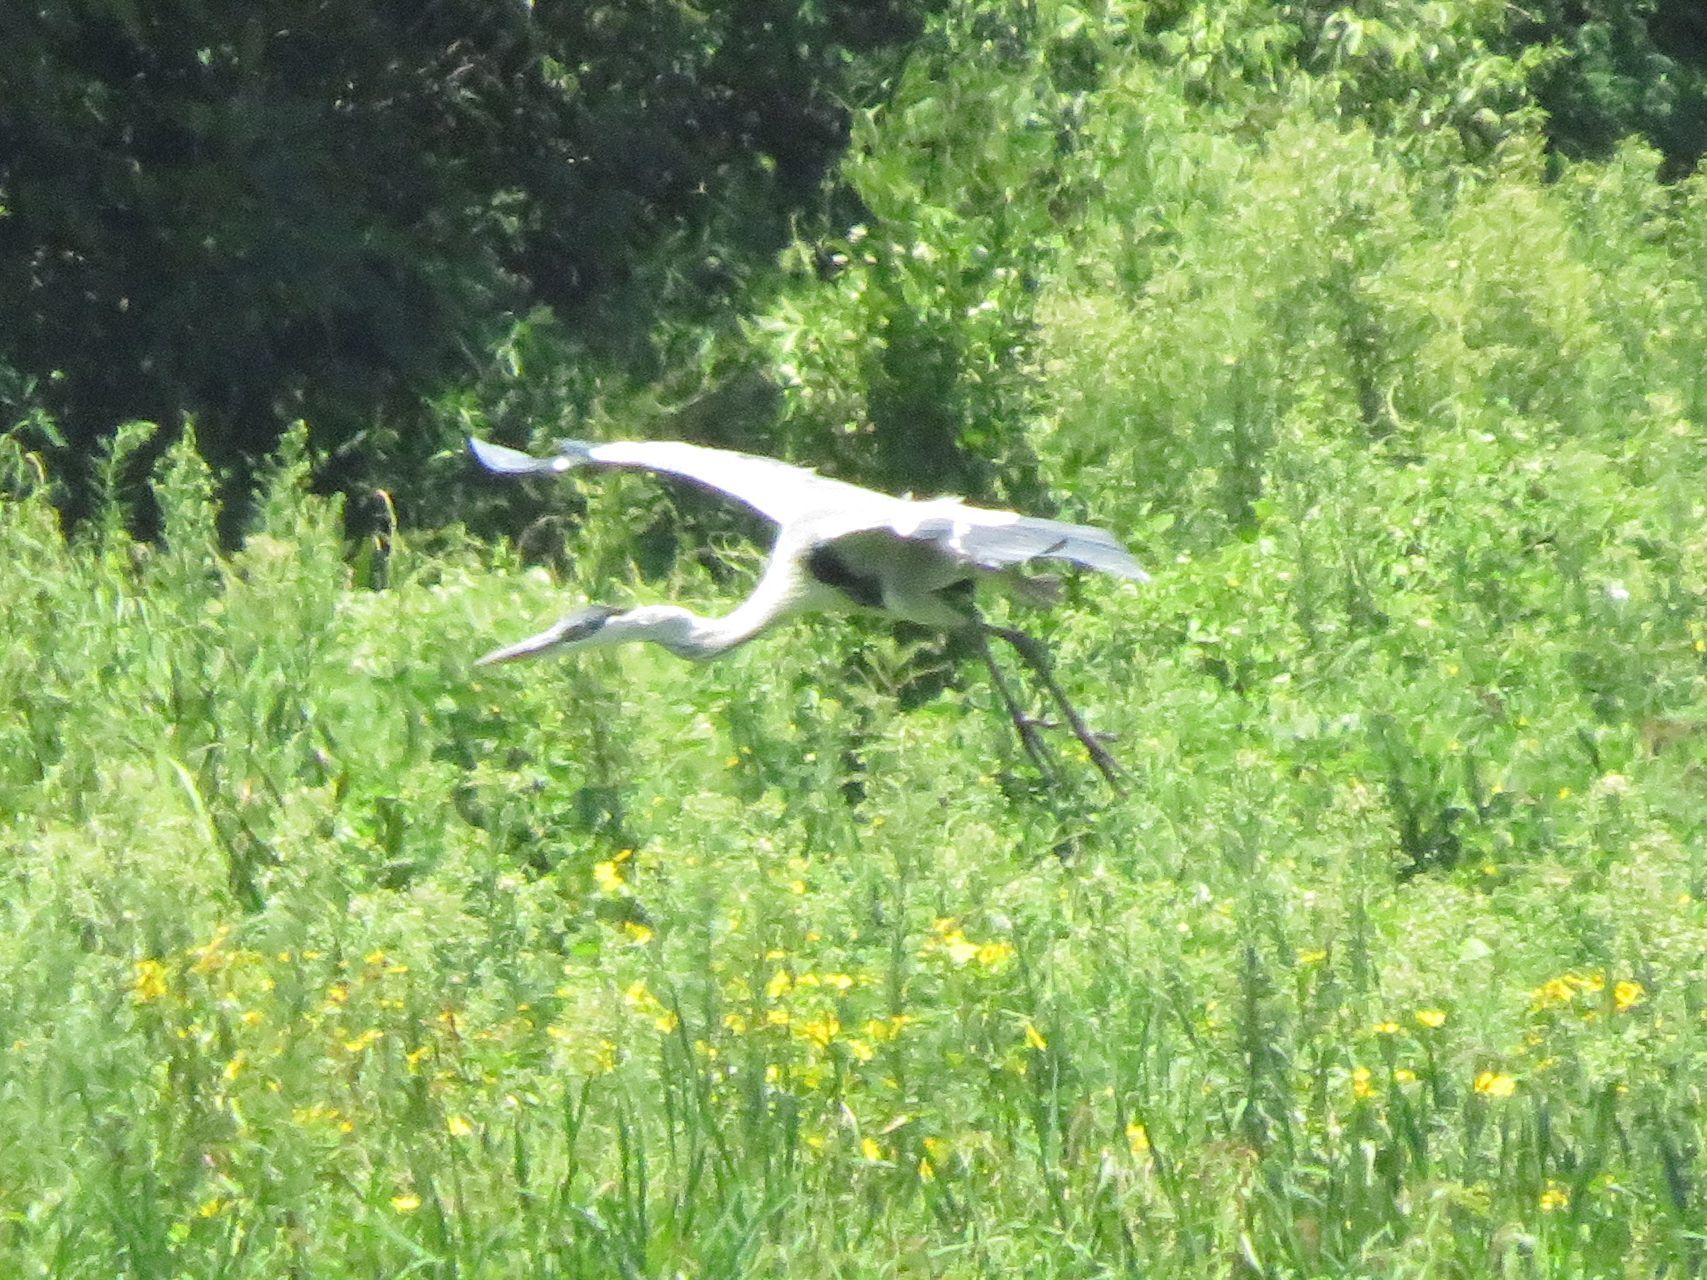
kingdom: Animalia
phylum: Chordata
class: Aves
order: Pelecaniformes
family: Ardeidae
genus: Ardea
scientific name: Ardea cocoi
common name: Cocoi heron
